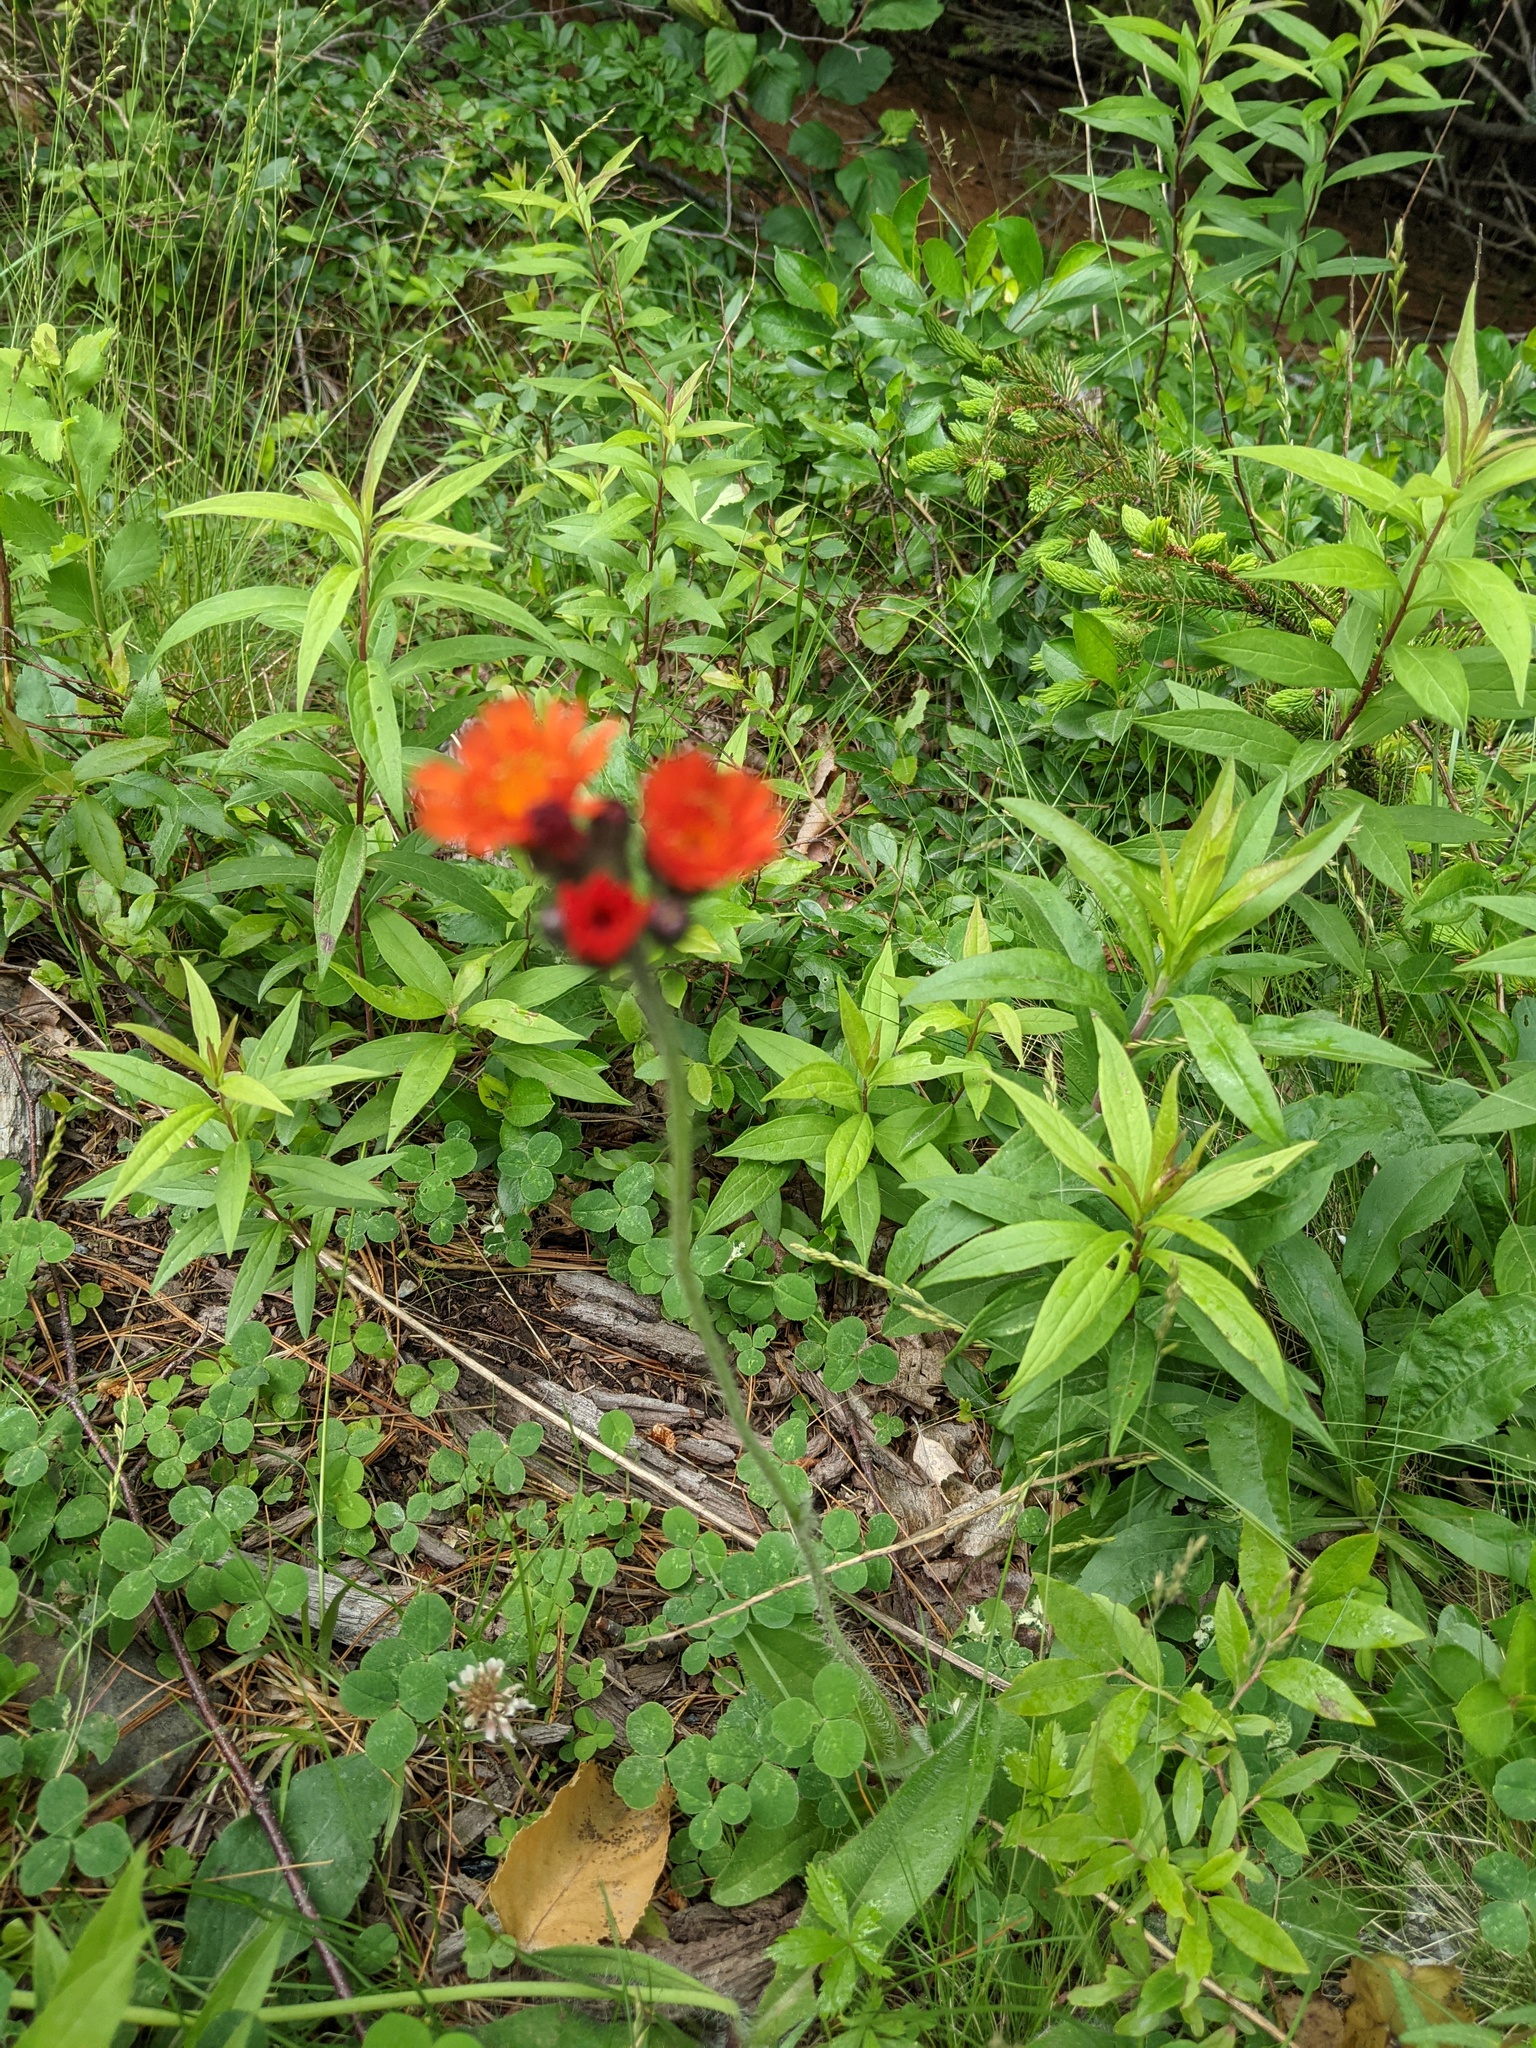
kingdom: Plantae
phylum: Tracheophyta
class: Magnoliopsida
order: Asterales
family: Asteraceae
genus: Pilosella
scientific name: Pilosella aurantiaca
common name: Fox-and-cubs
